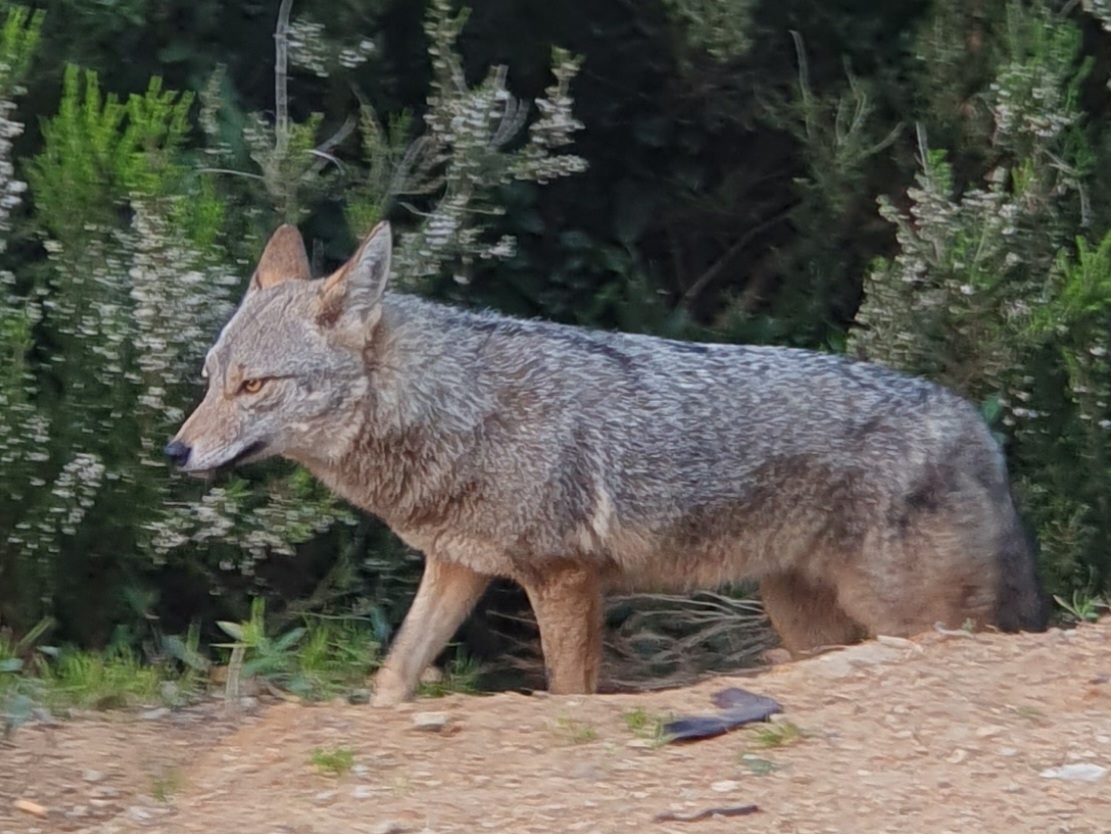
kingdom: Animalia
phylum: Chordata
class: Mammalia
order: Carnivora
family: Canidae
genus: Canis
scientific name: Canis lupaster
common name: African golden wolf
